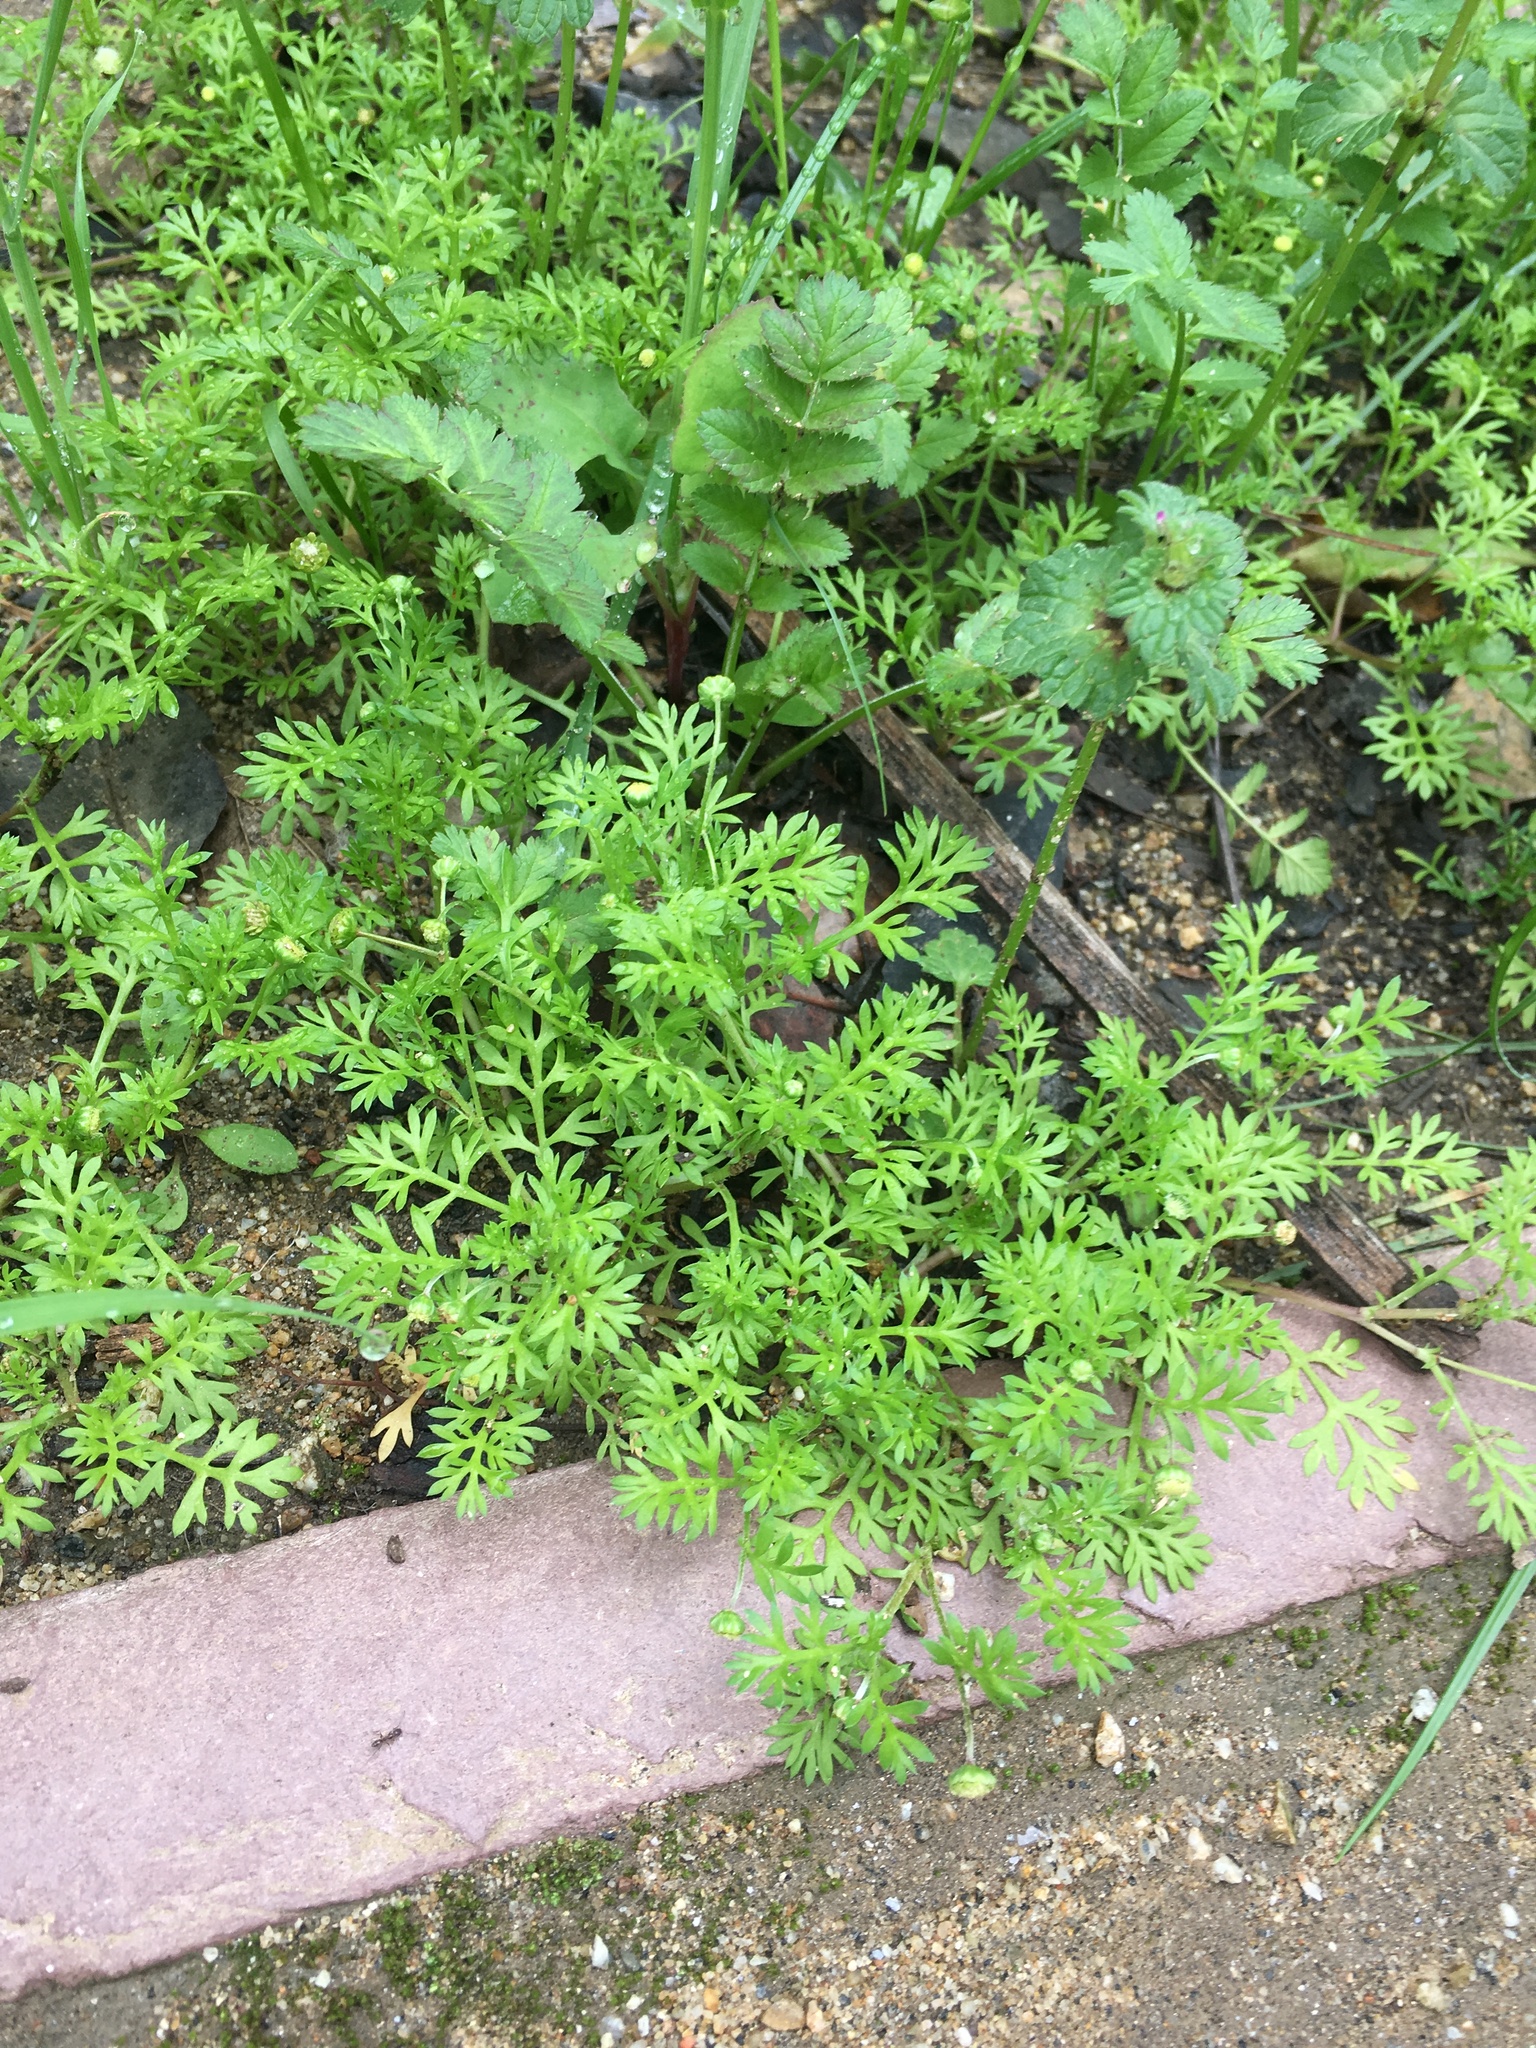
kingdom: Plantae
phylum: Tracheophyta
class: Magnoliopsida
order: Asterales
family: Asteraceae
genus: Cotula
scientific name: Cotula australis
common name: Australian waterbuttons
